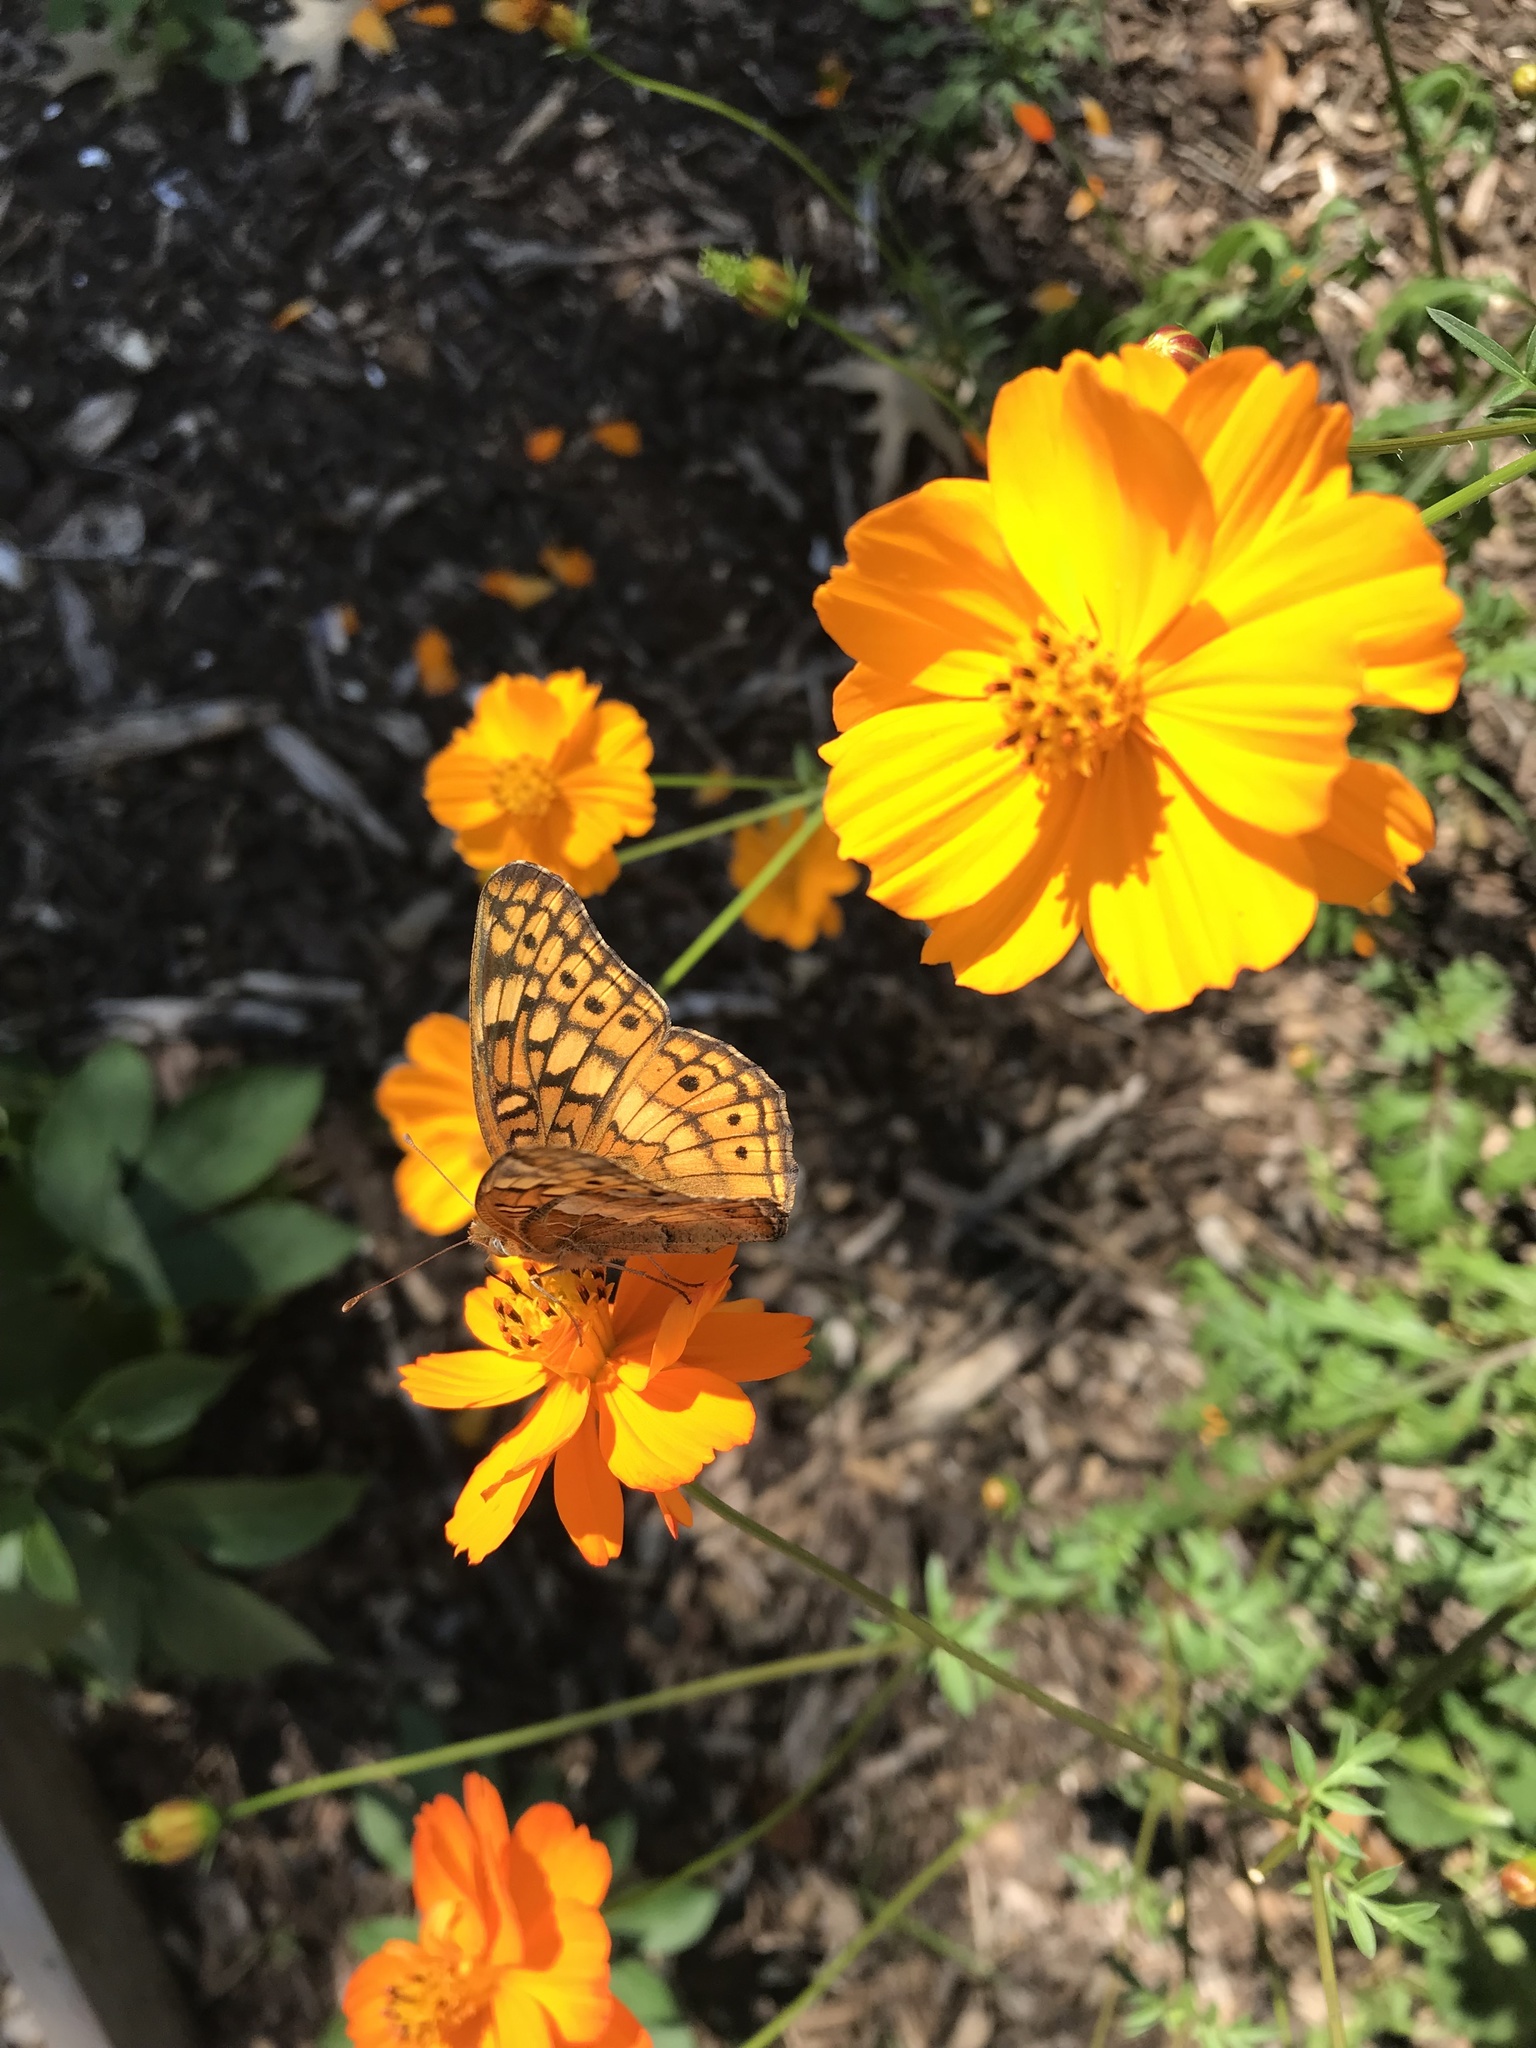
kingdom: Animalia
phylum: Arthropoda
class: Insecta
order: Lepidoptera
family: Nymphalidae
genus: Euptoieta
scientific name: Euptoieta claudia
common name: Variegated fritillary
